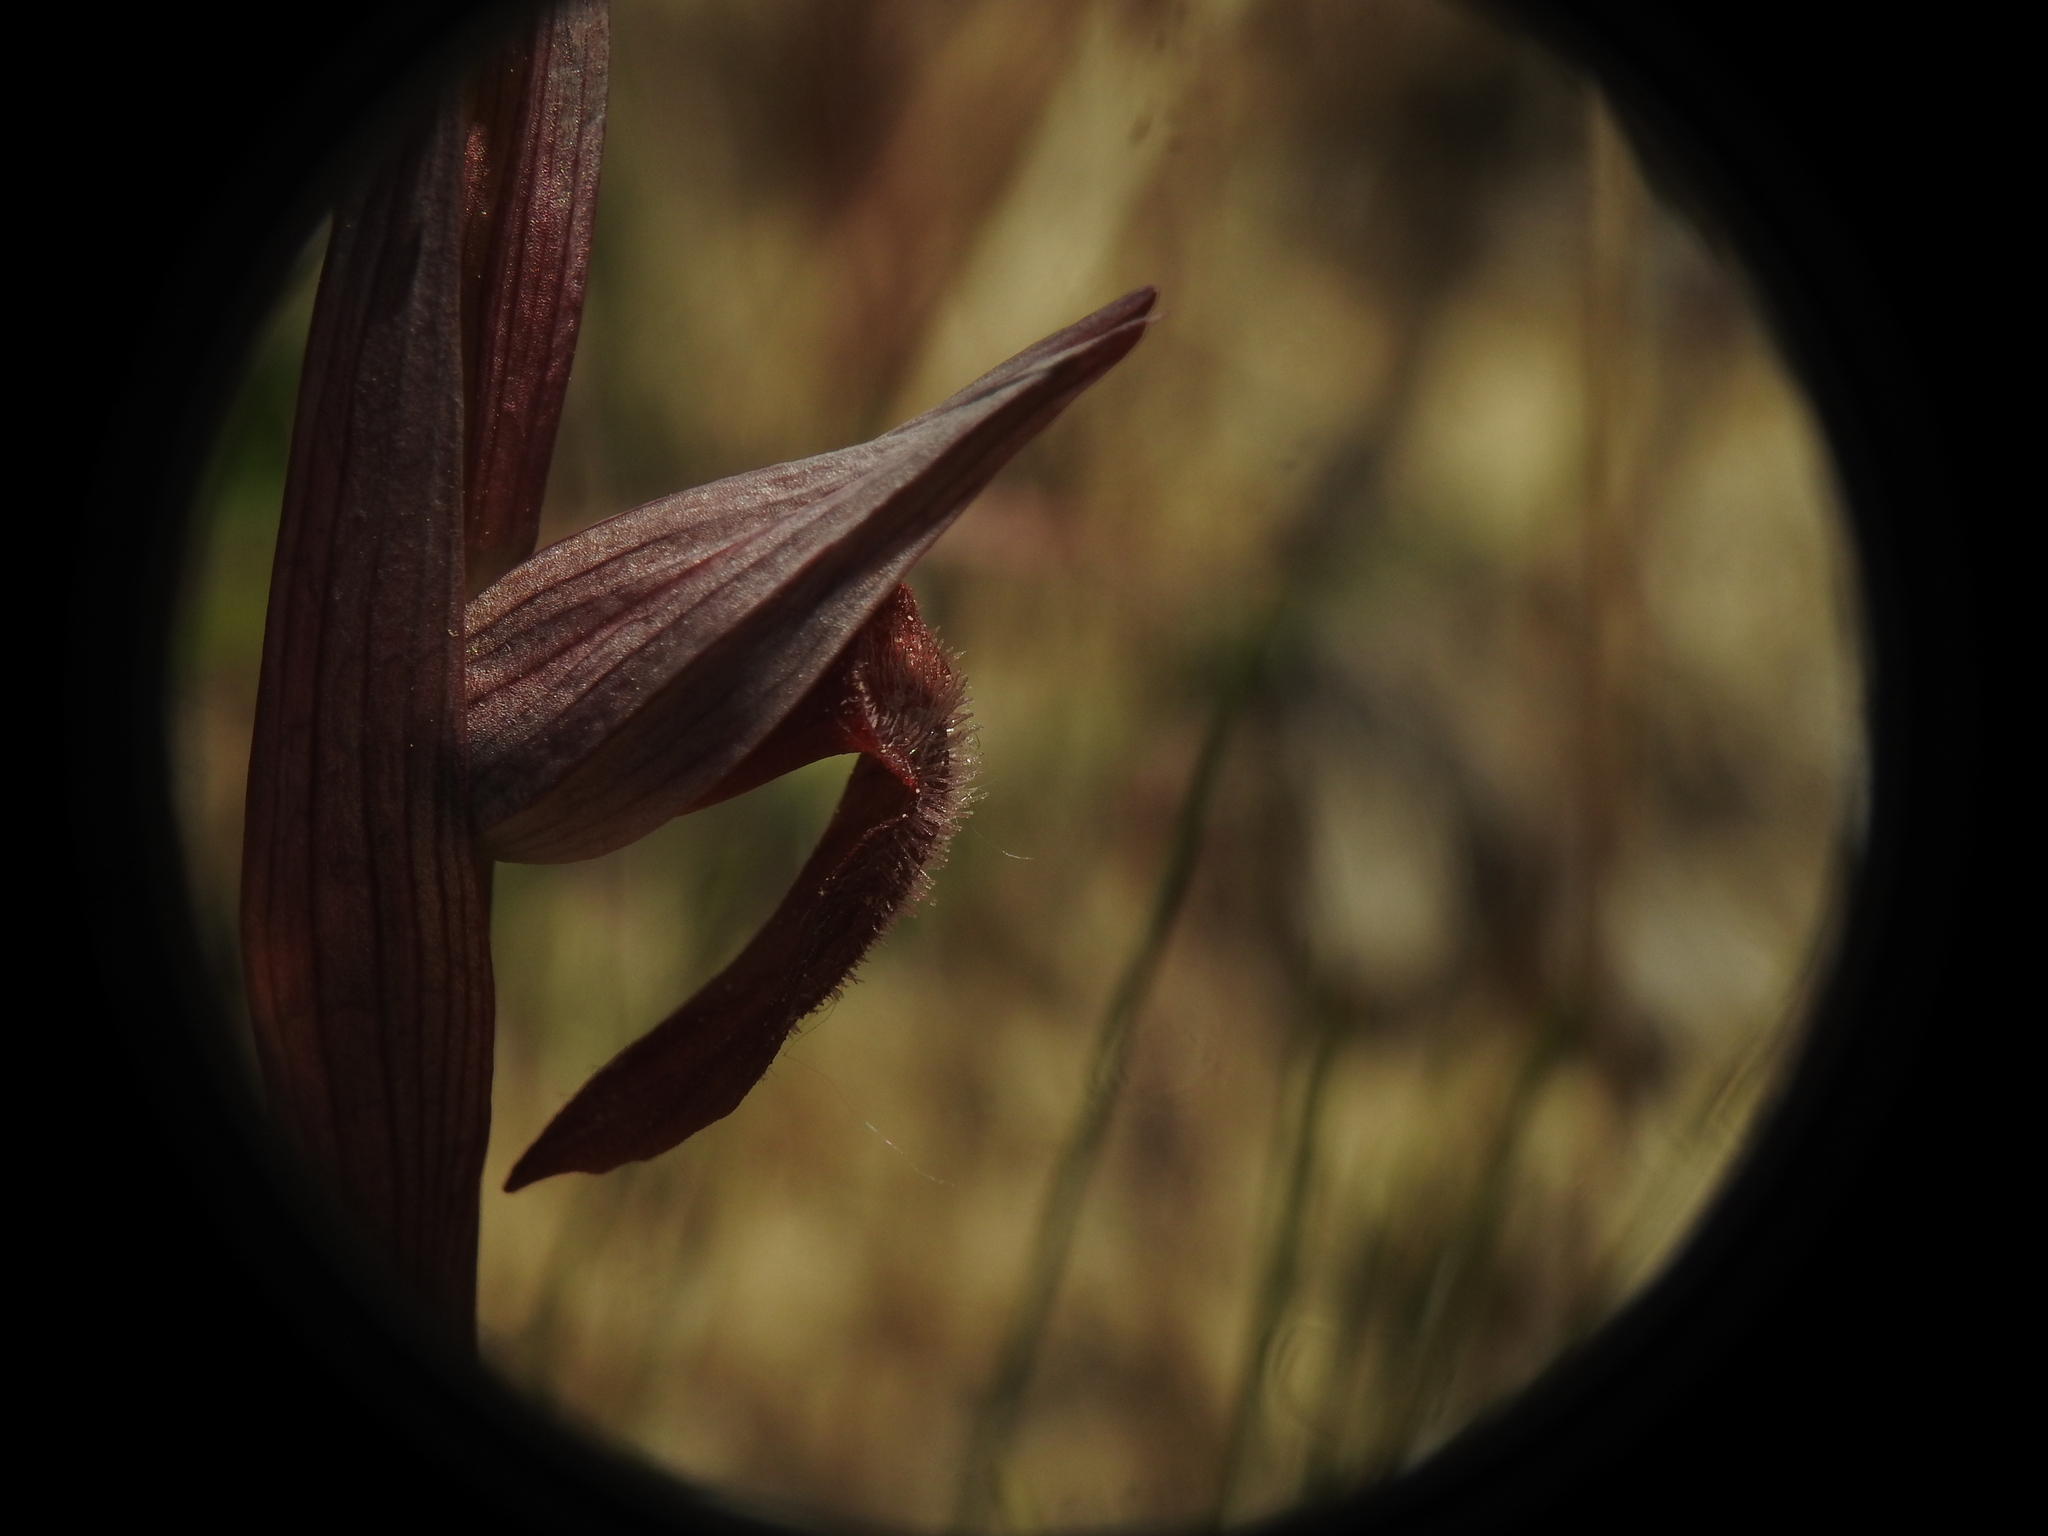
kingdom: Plantae
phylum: Tracheophyta
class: Liliopsida
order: Asparagales
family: Orchidaceae
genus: Serapias
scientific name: Serapias vomeracea
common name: Long-lipped tongue-orchid
